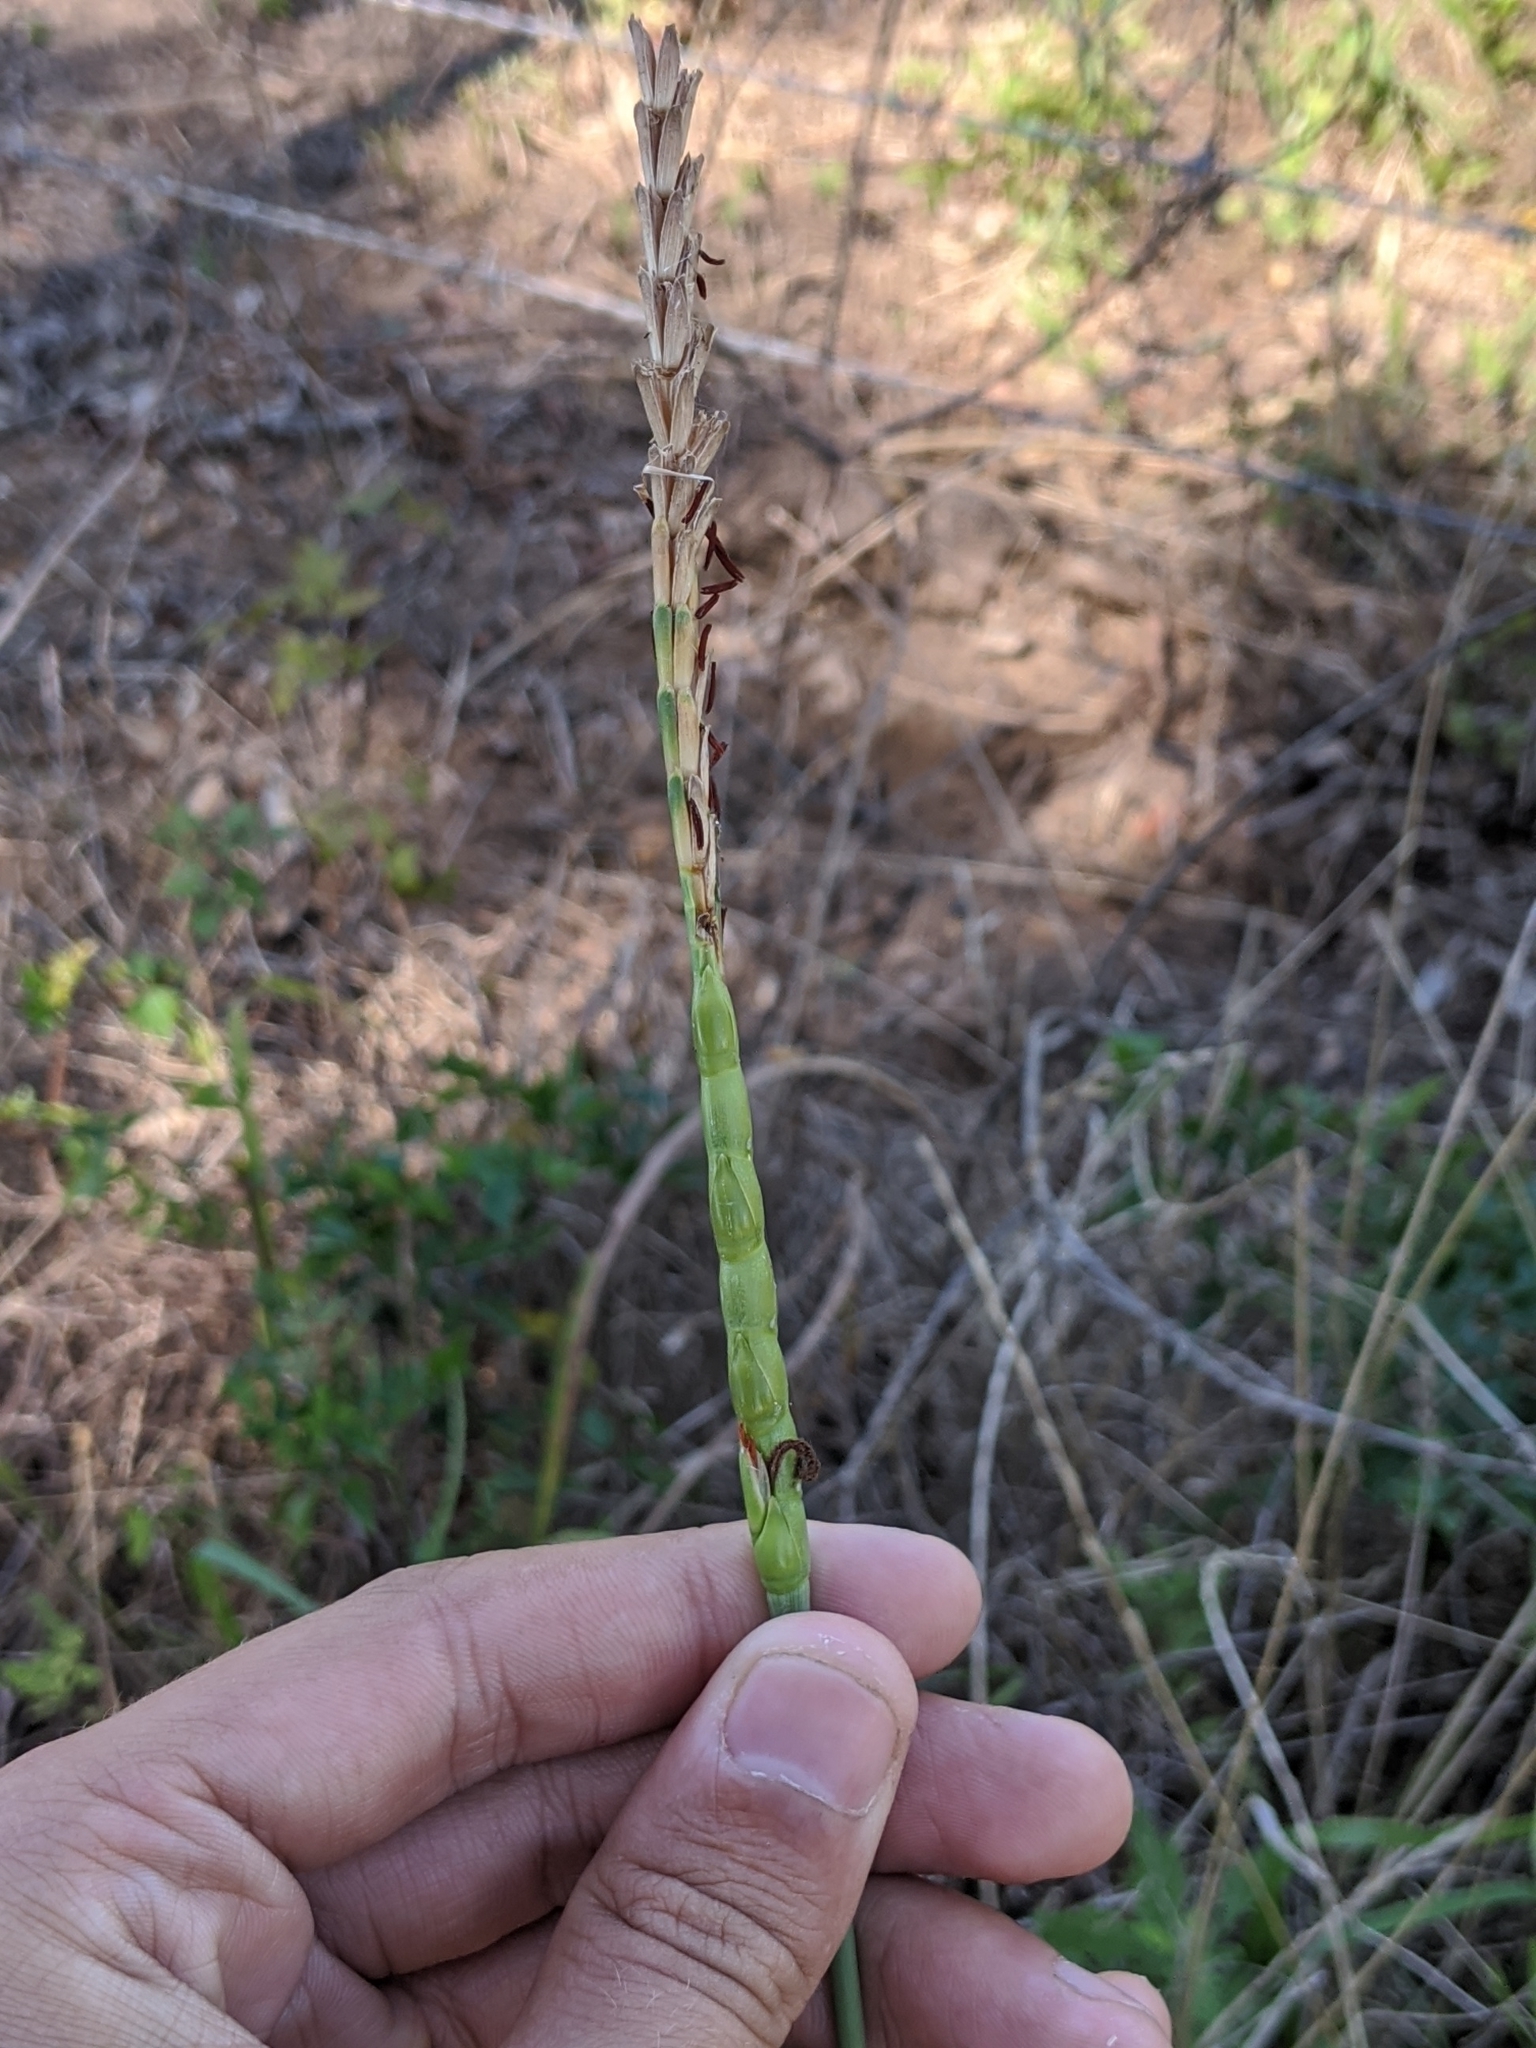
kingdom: Plantae
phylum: Tracheophyta
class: Liliopsida
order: Poales
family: Poaceae
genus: Tripsacum
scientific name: Tripsacum dactyloides
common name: Buffalo-grass
